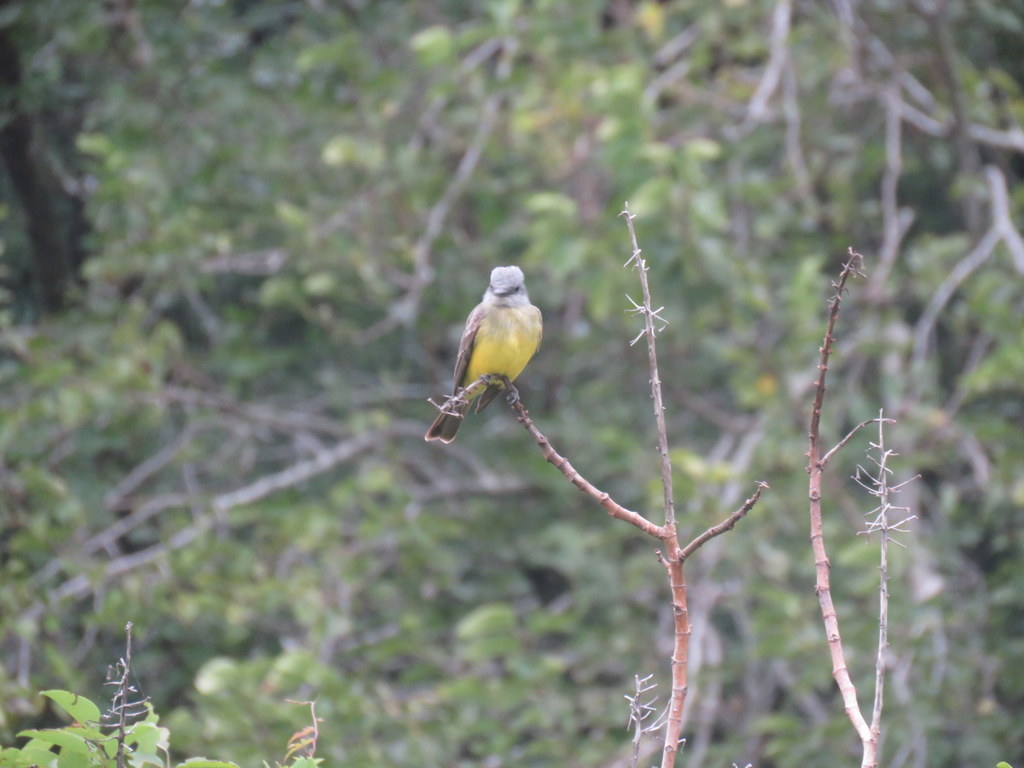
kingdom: Animalia
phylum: Chordata
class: Aves
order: Passeriformes
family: Tyrannidae
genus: Tyrannus
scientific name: Tyrannus melancholicus
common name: Tropical kingbird
